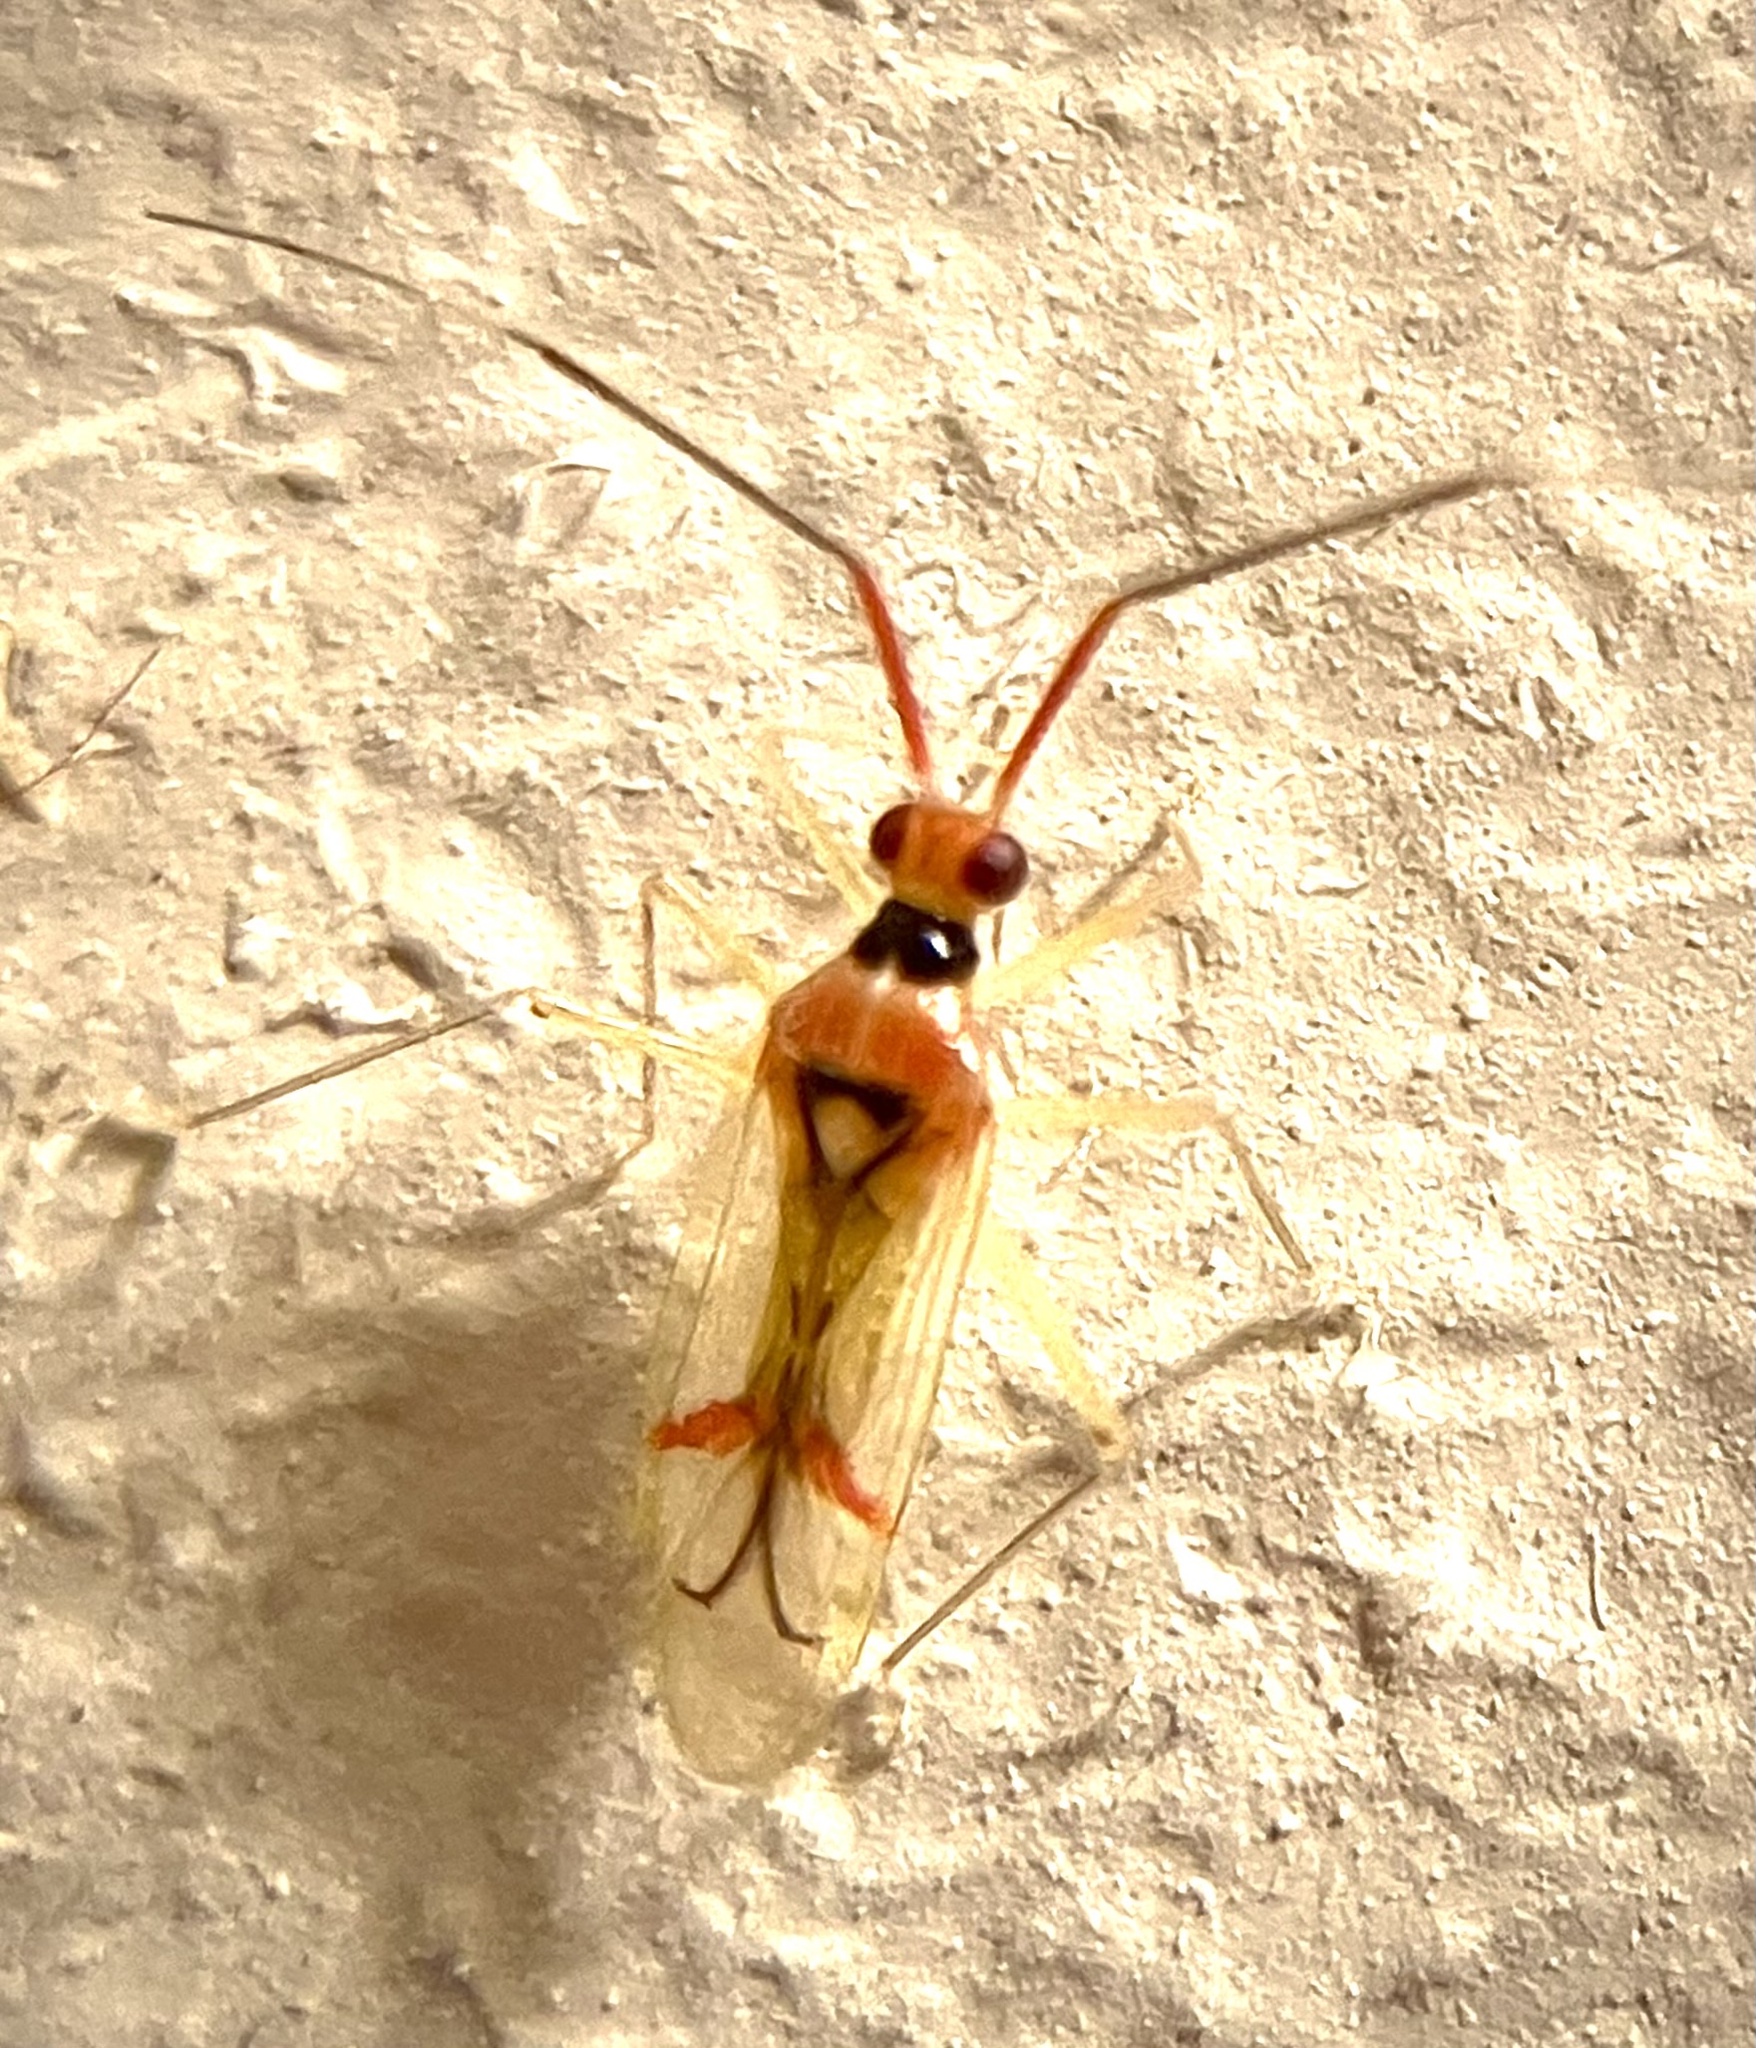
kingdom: Animalia
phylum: Arthropoda
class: Insecta
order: Hemiptera
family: Miridae
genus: Hyaliodes
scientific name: Hyaliodes harti
